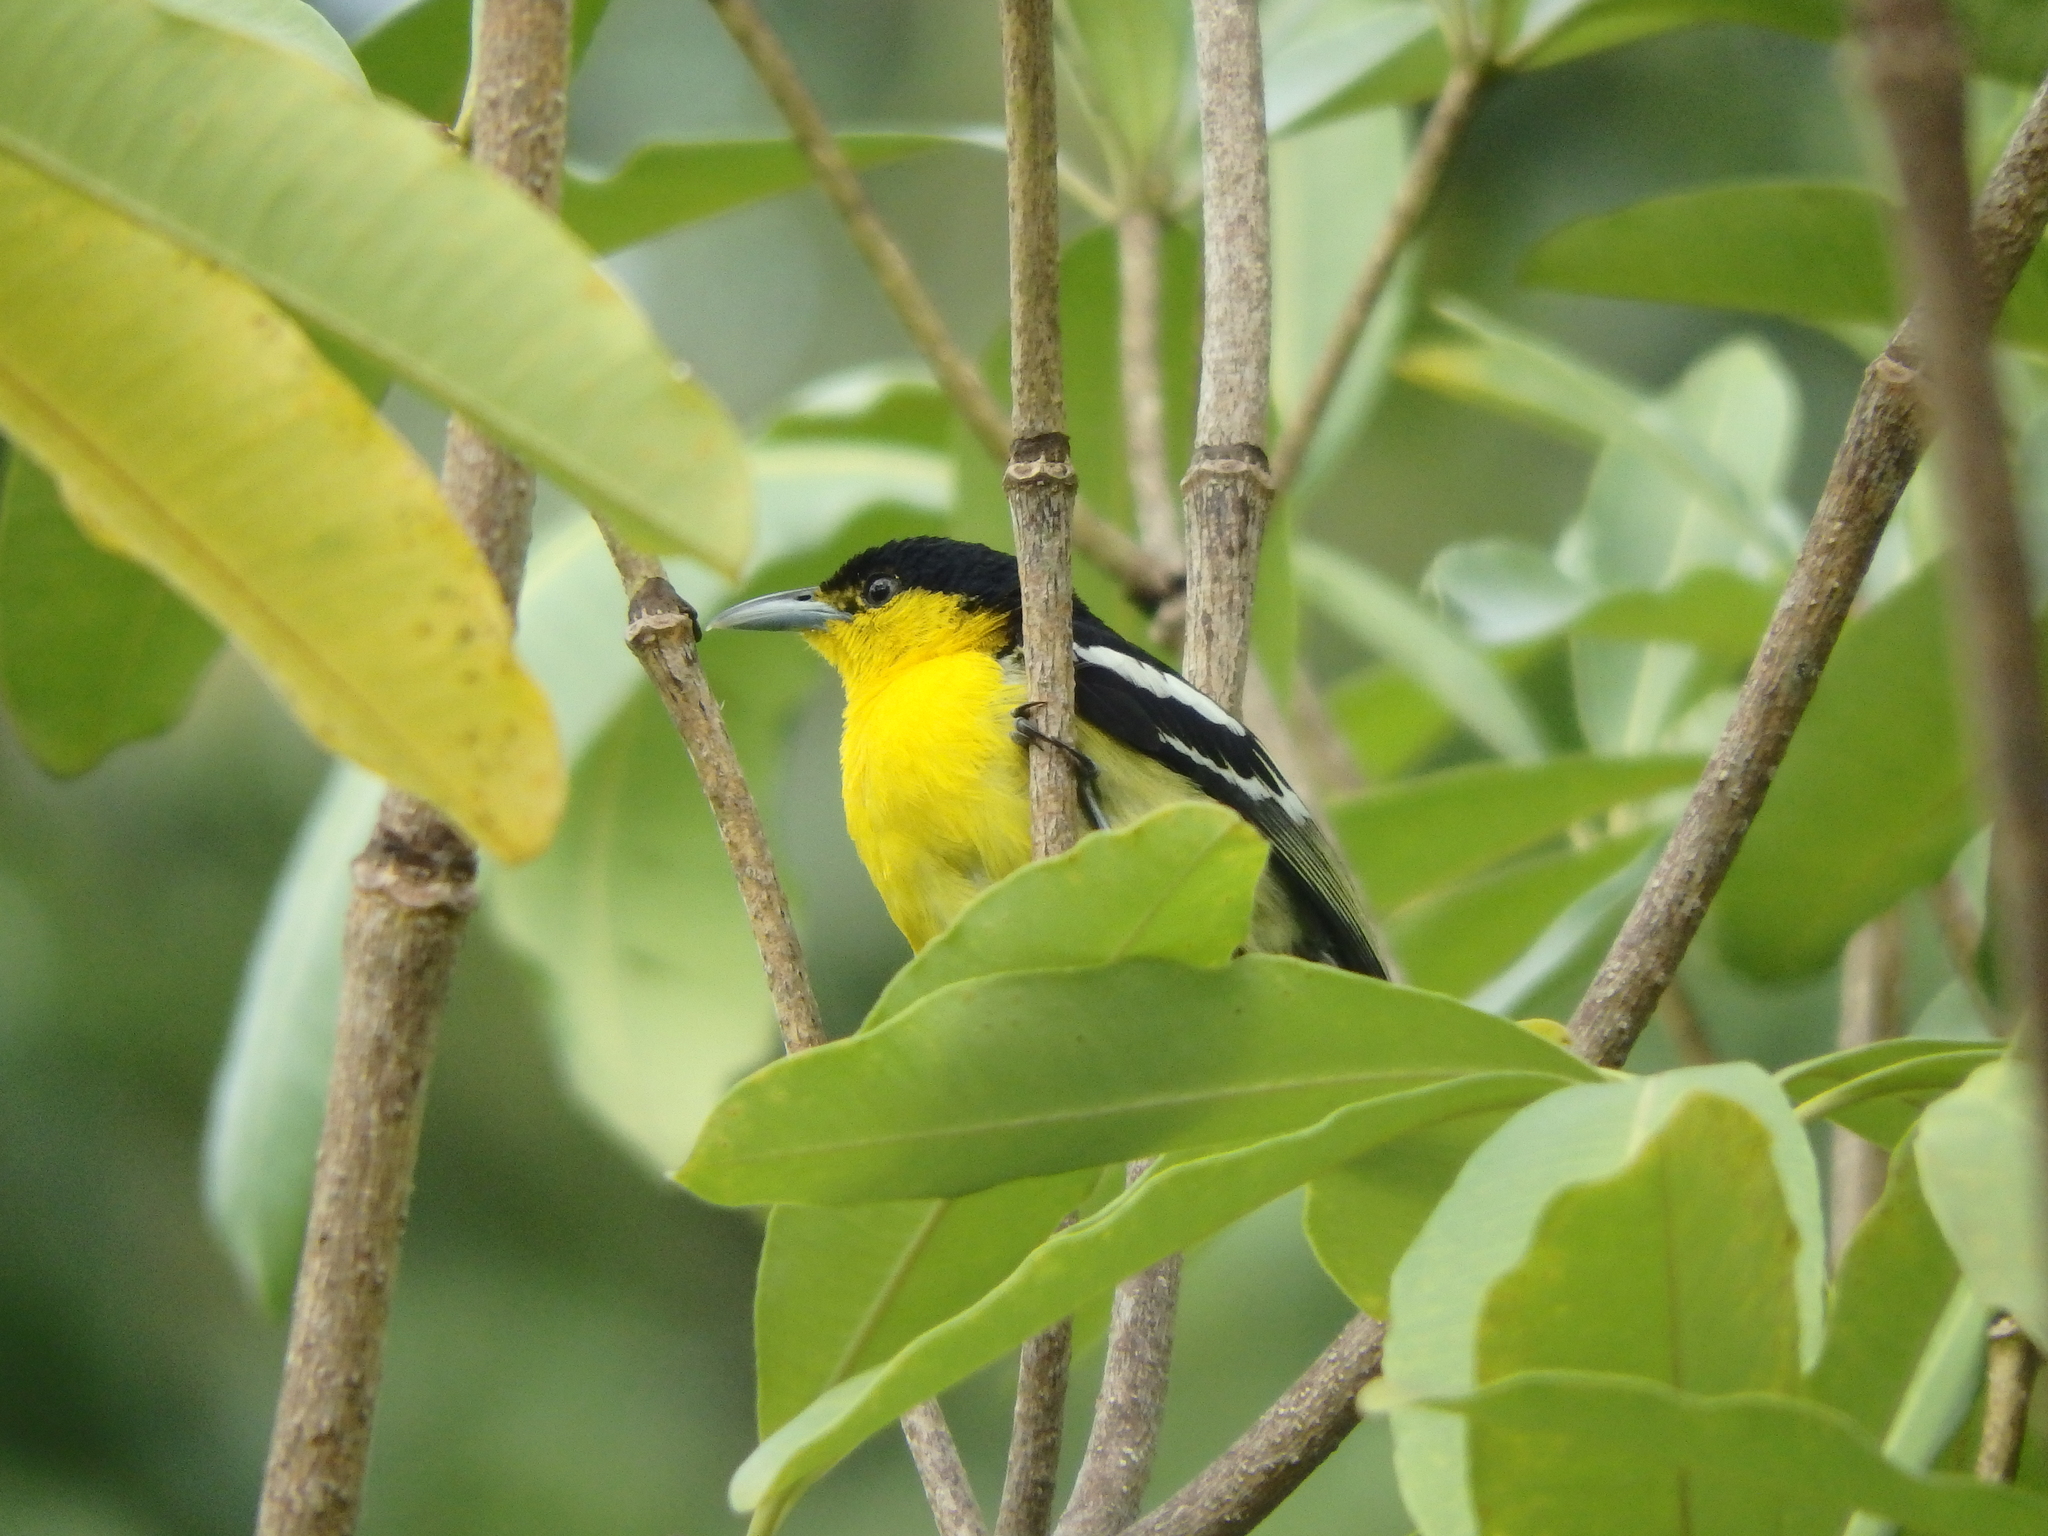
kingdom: Animalia
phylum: Chordata
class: Aves
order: Passeriformes
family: Aegithinidae
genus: Aegithina
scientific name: Aegithina tiphia
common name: Common iora
